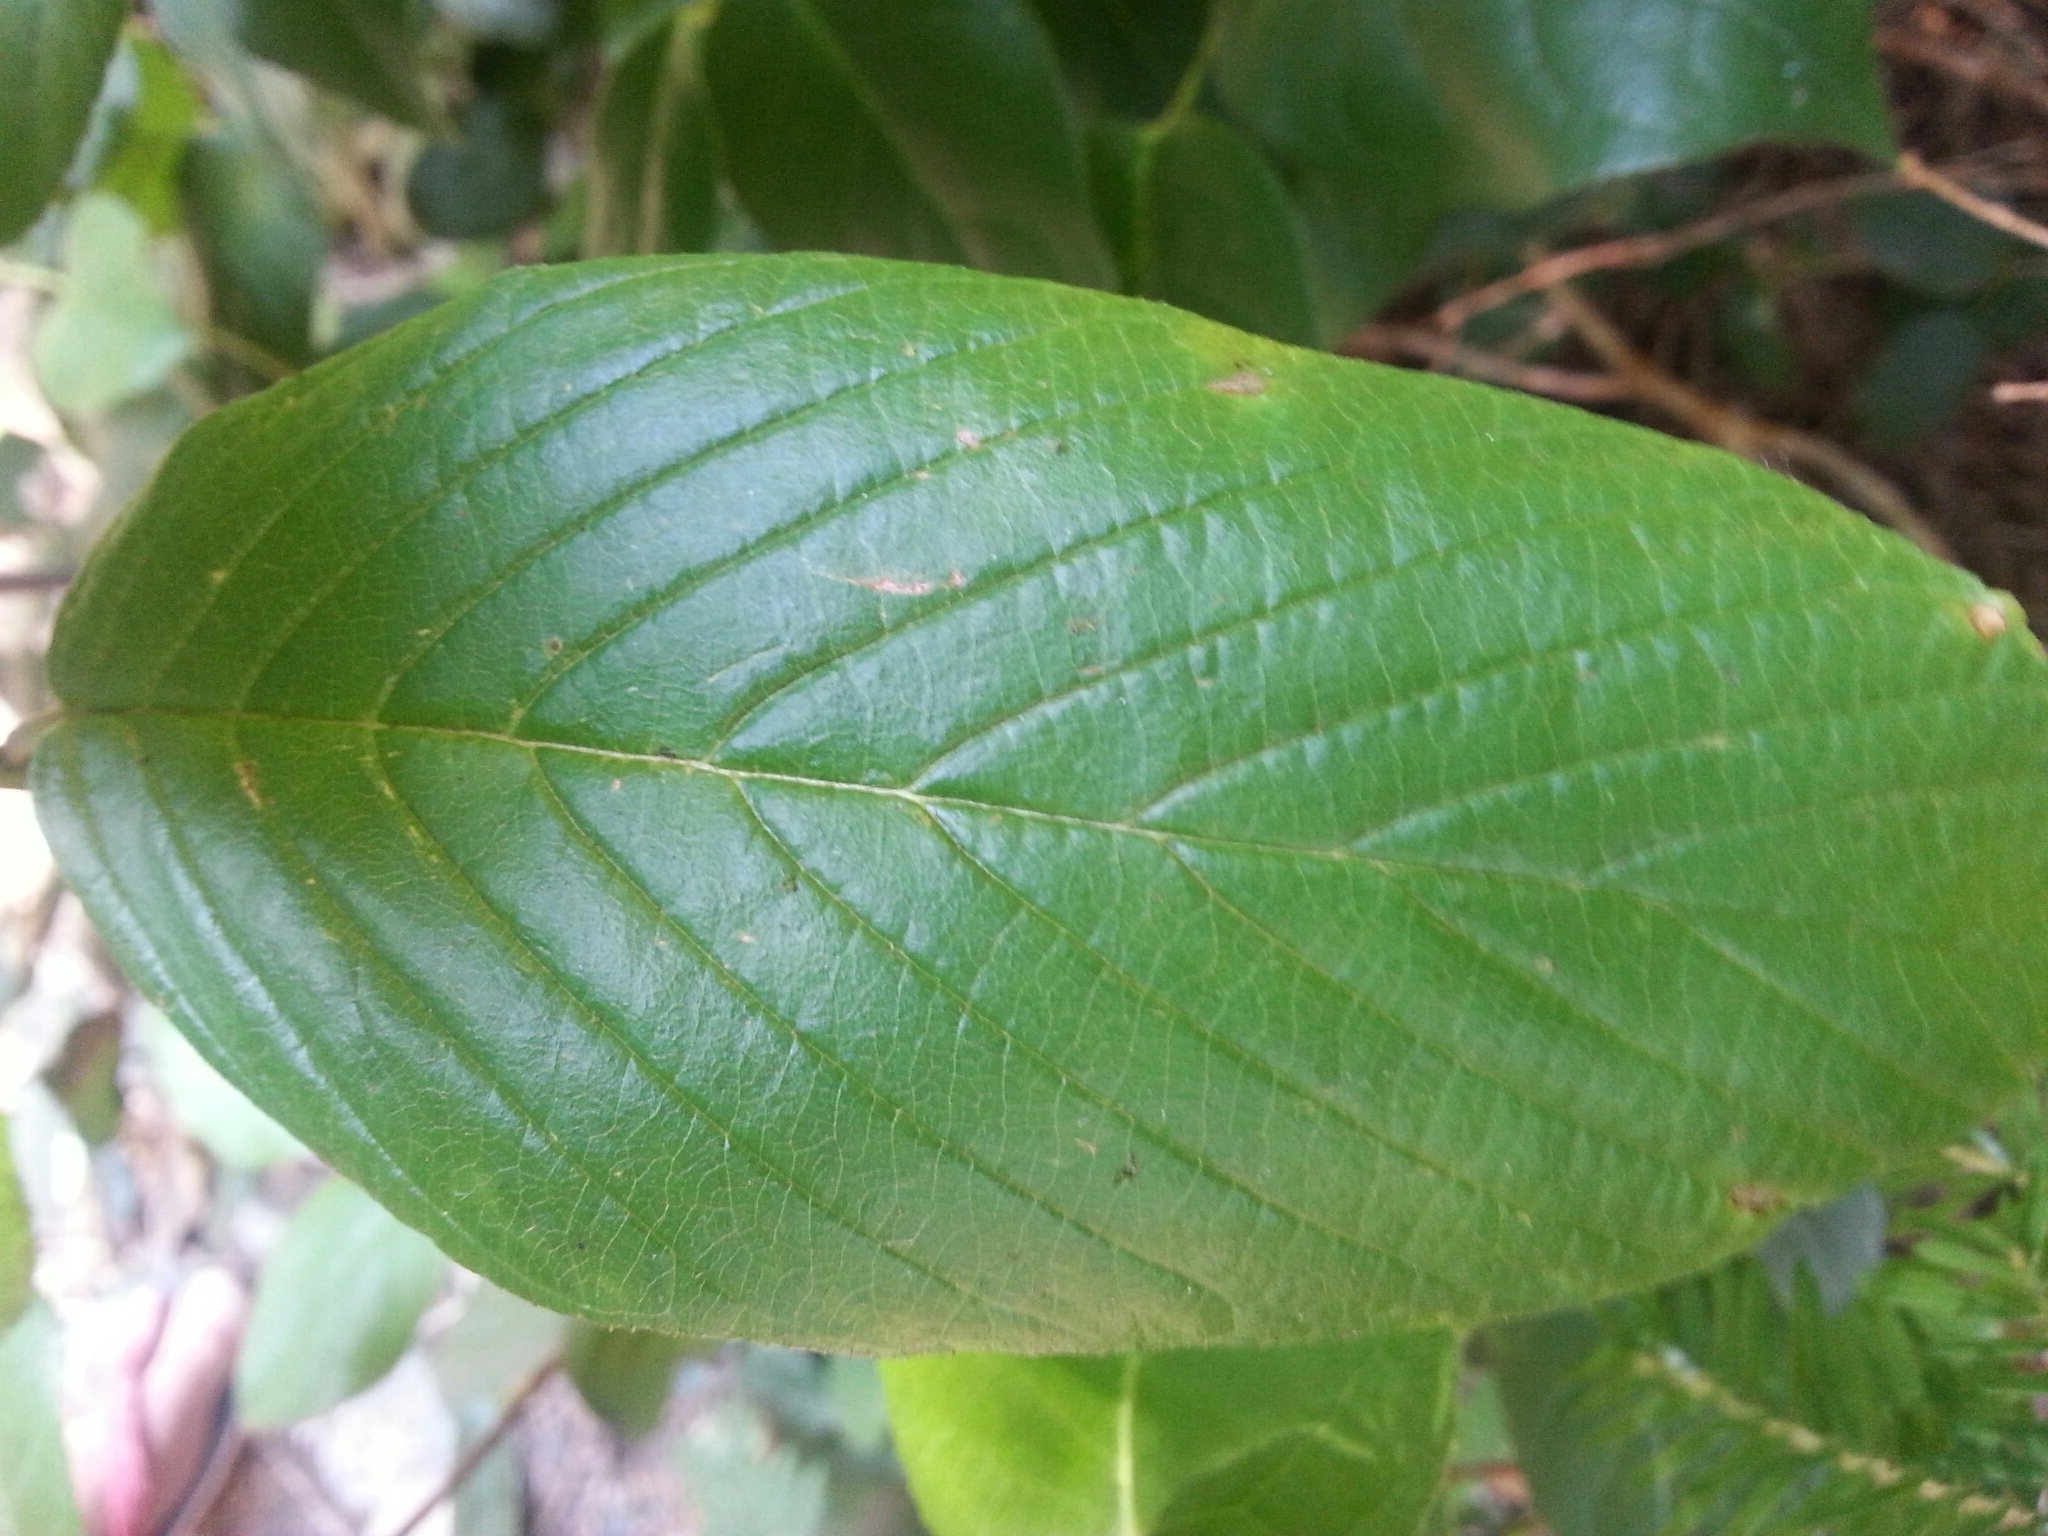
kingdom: Plantae
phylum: Tracheophyta
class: Magnoliopsida
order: Rosales
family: Rhamnaceae
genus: Frangula
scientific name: Frangula purshiana
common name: Cascara buckthorn
